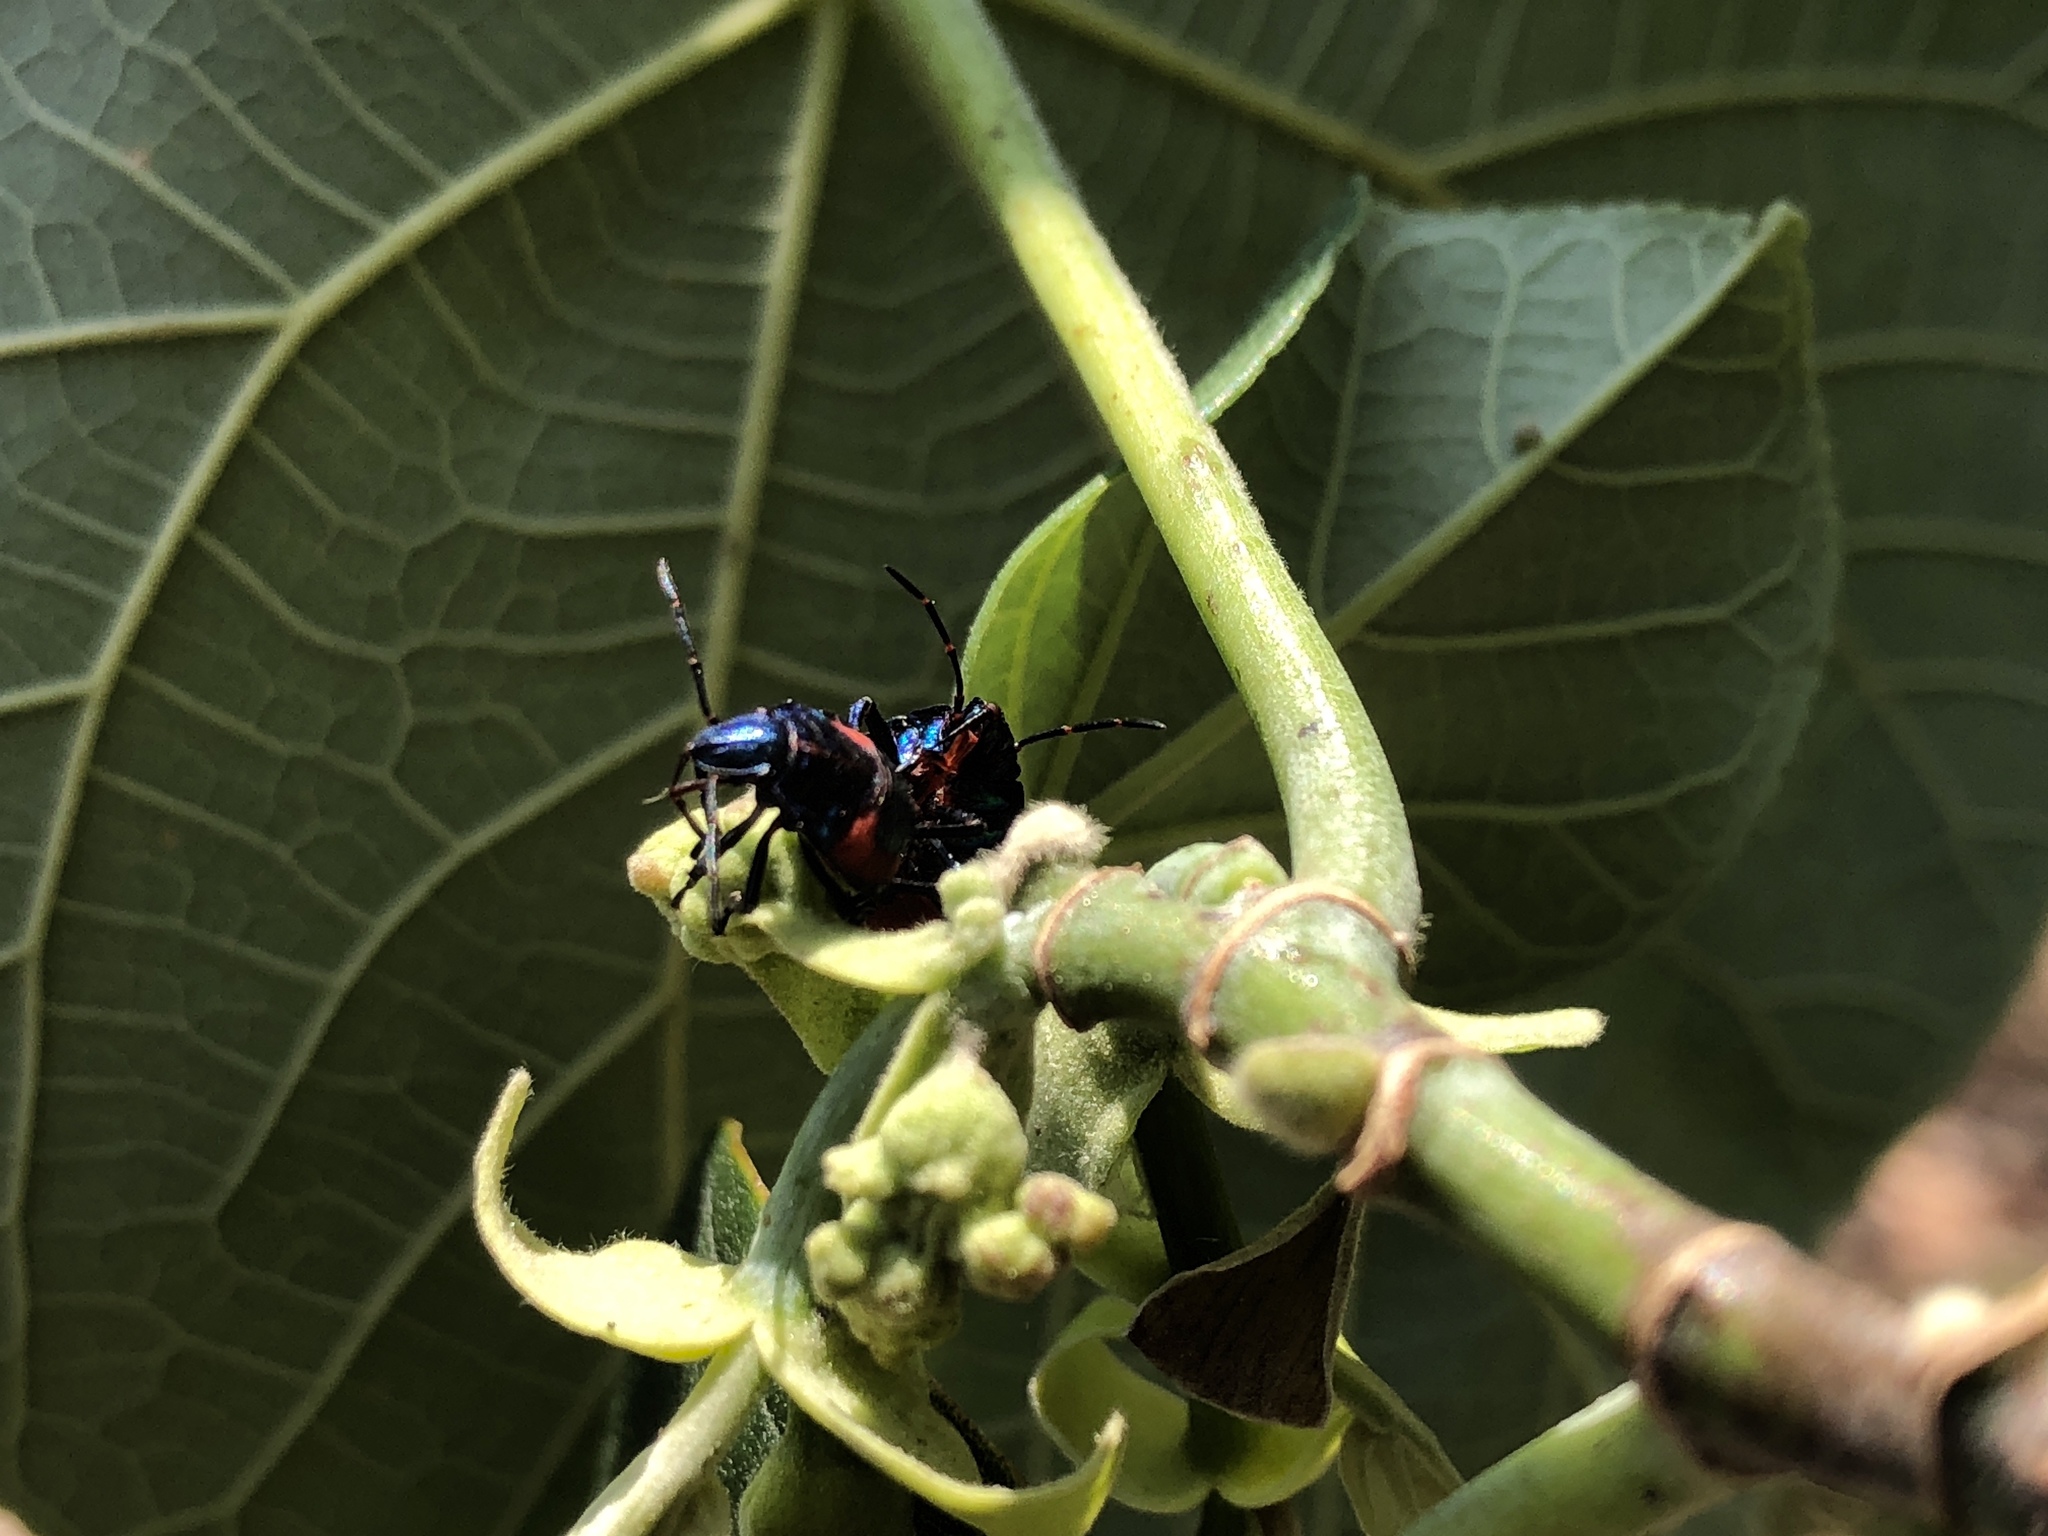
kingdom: Animalia
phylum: Arthropoda
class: Insecta
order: Hemiptera
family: Scutelleridae
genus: Tectocoris
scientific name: Tectocoris diophthalmus
